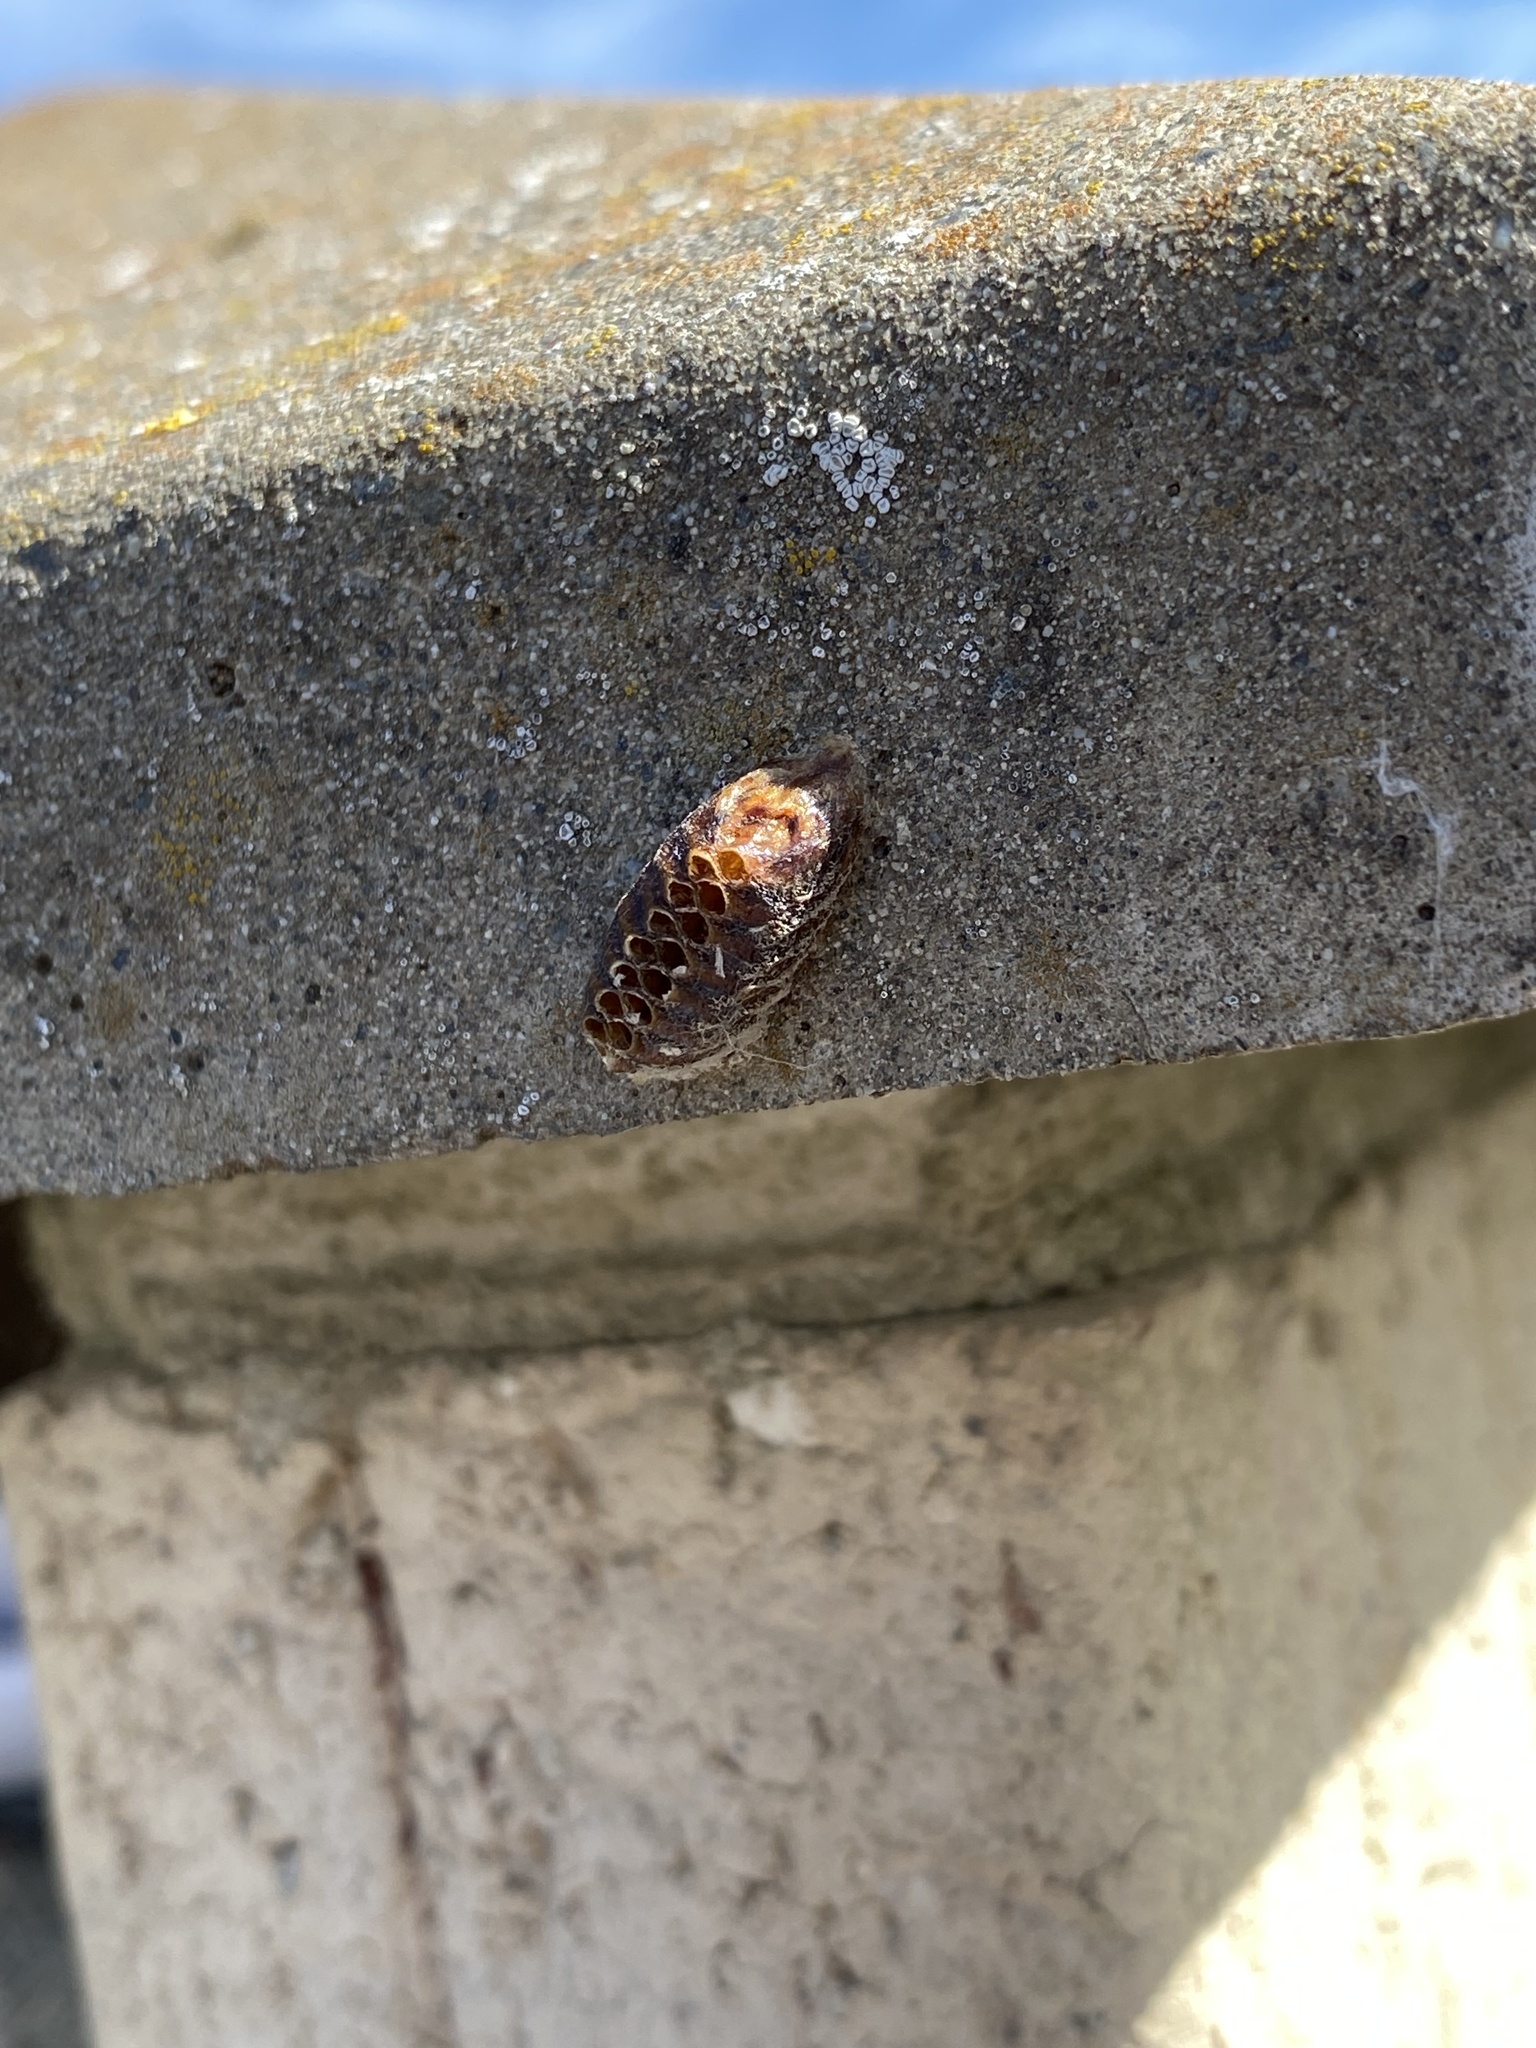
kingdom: Animalia
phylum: Arthropoda
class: Insecta
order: Mantodea
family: Mantidae
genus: Orthodera
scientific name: Orthodera novaezealandiae
